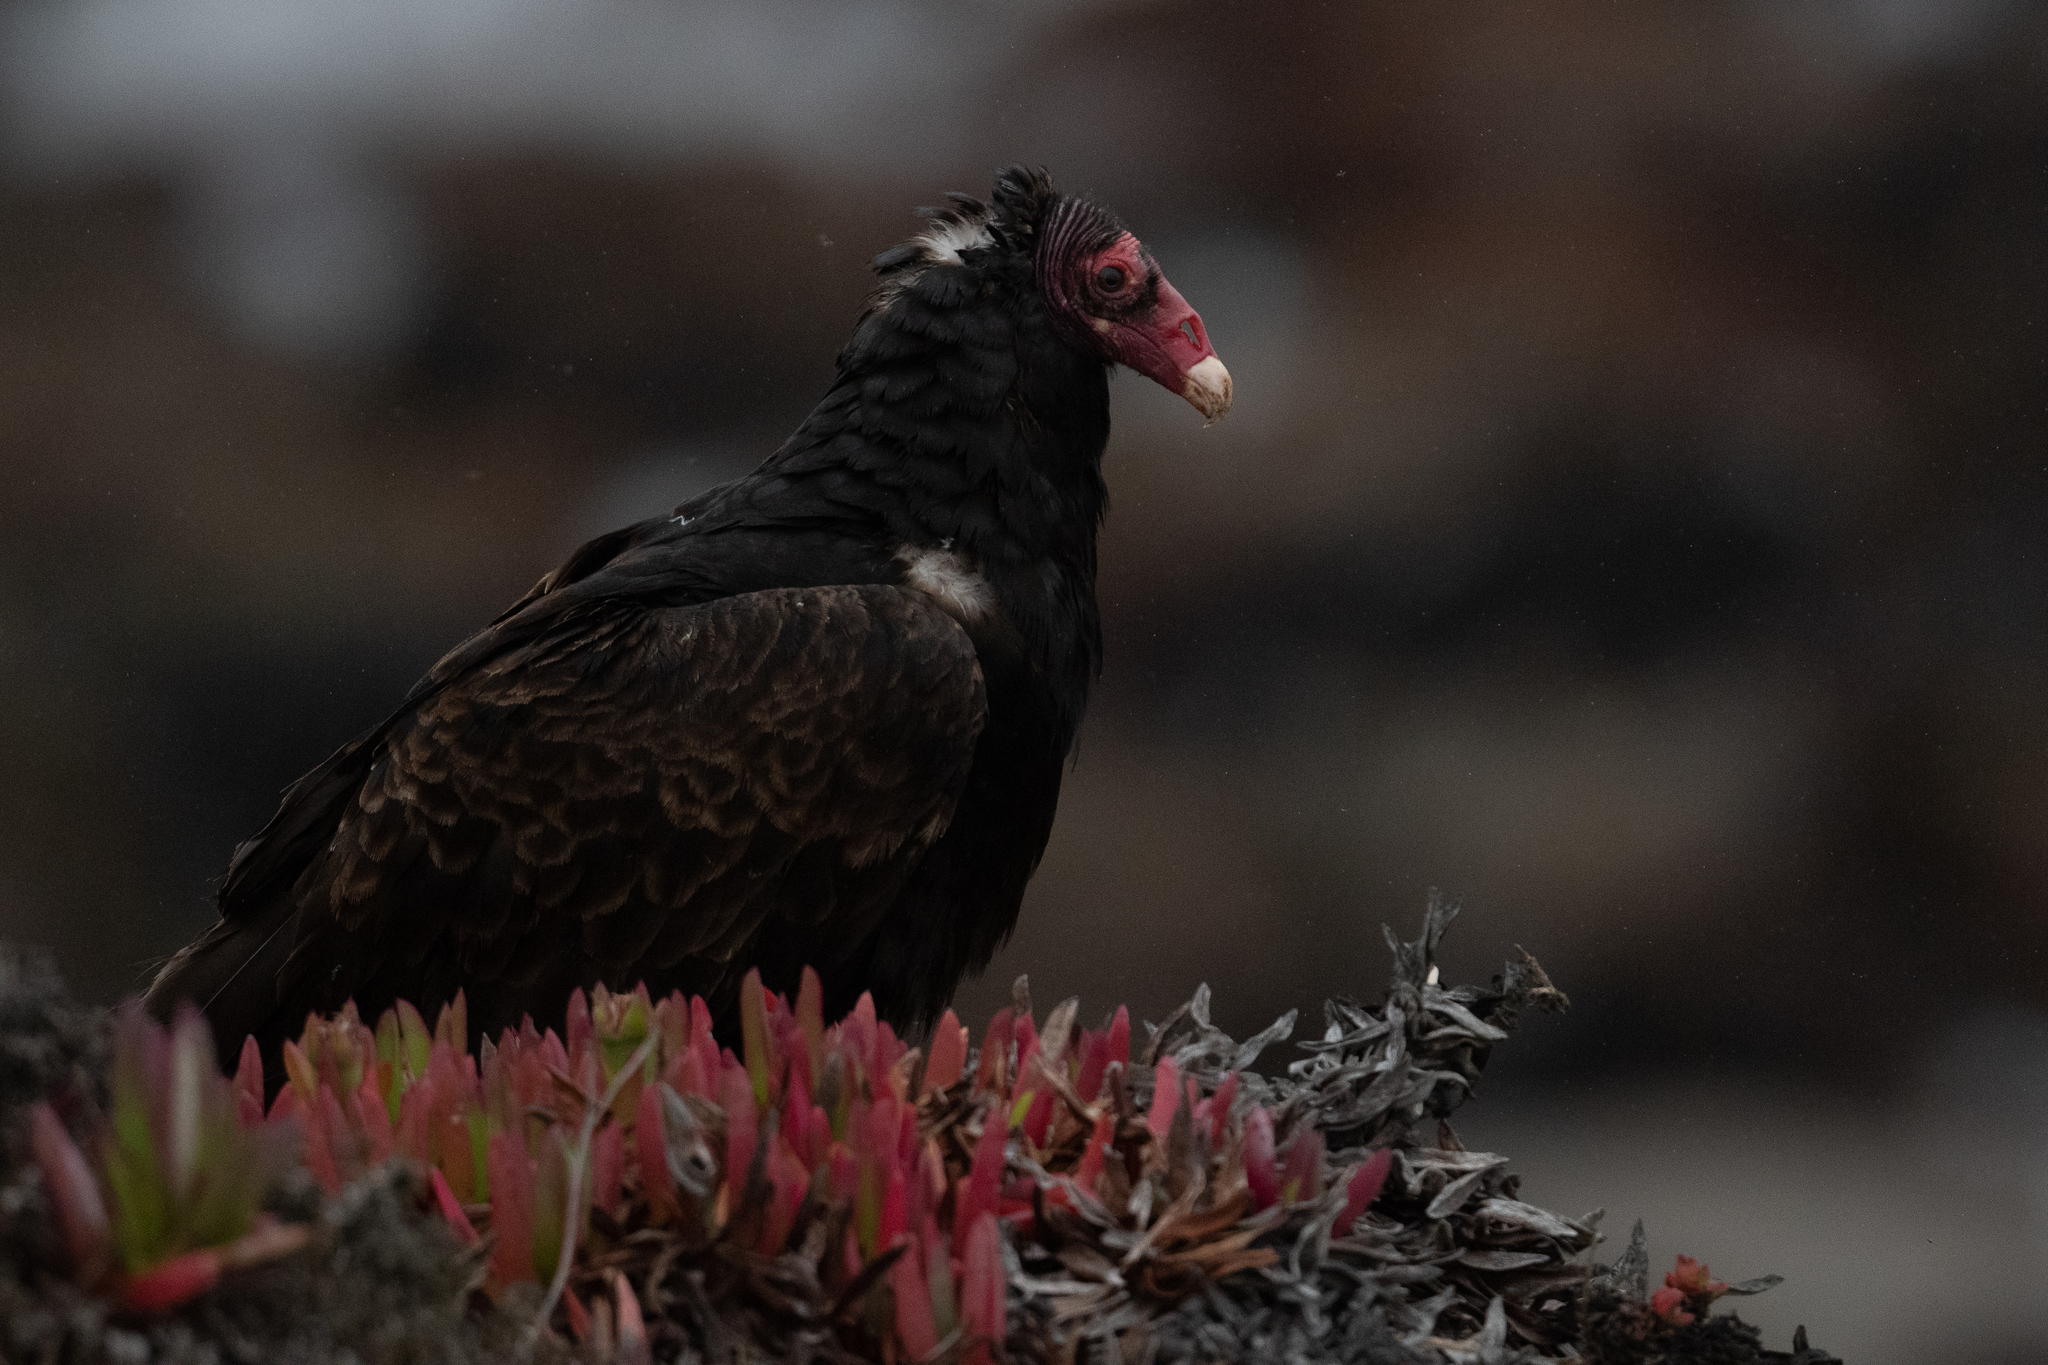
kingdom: Animalia
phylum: Chordata
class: Aves
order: Accipitriformes
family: Cathartidae
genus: Cathartes
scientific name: Cathartes aura
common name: Turkey vulture
